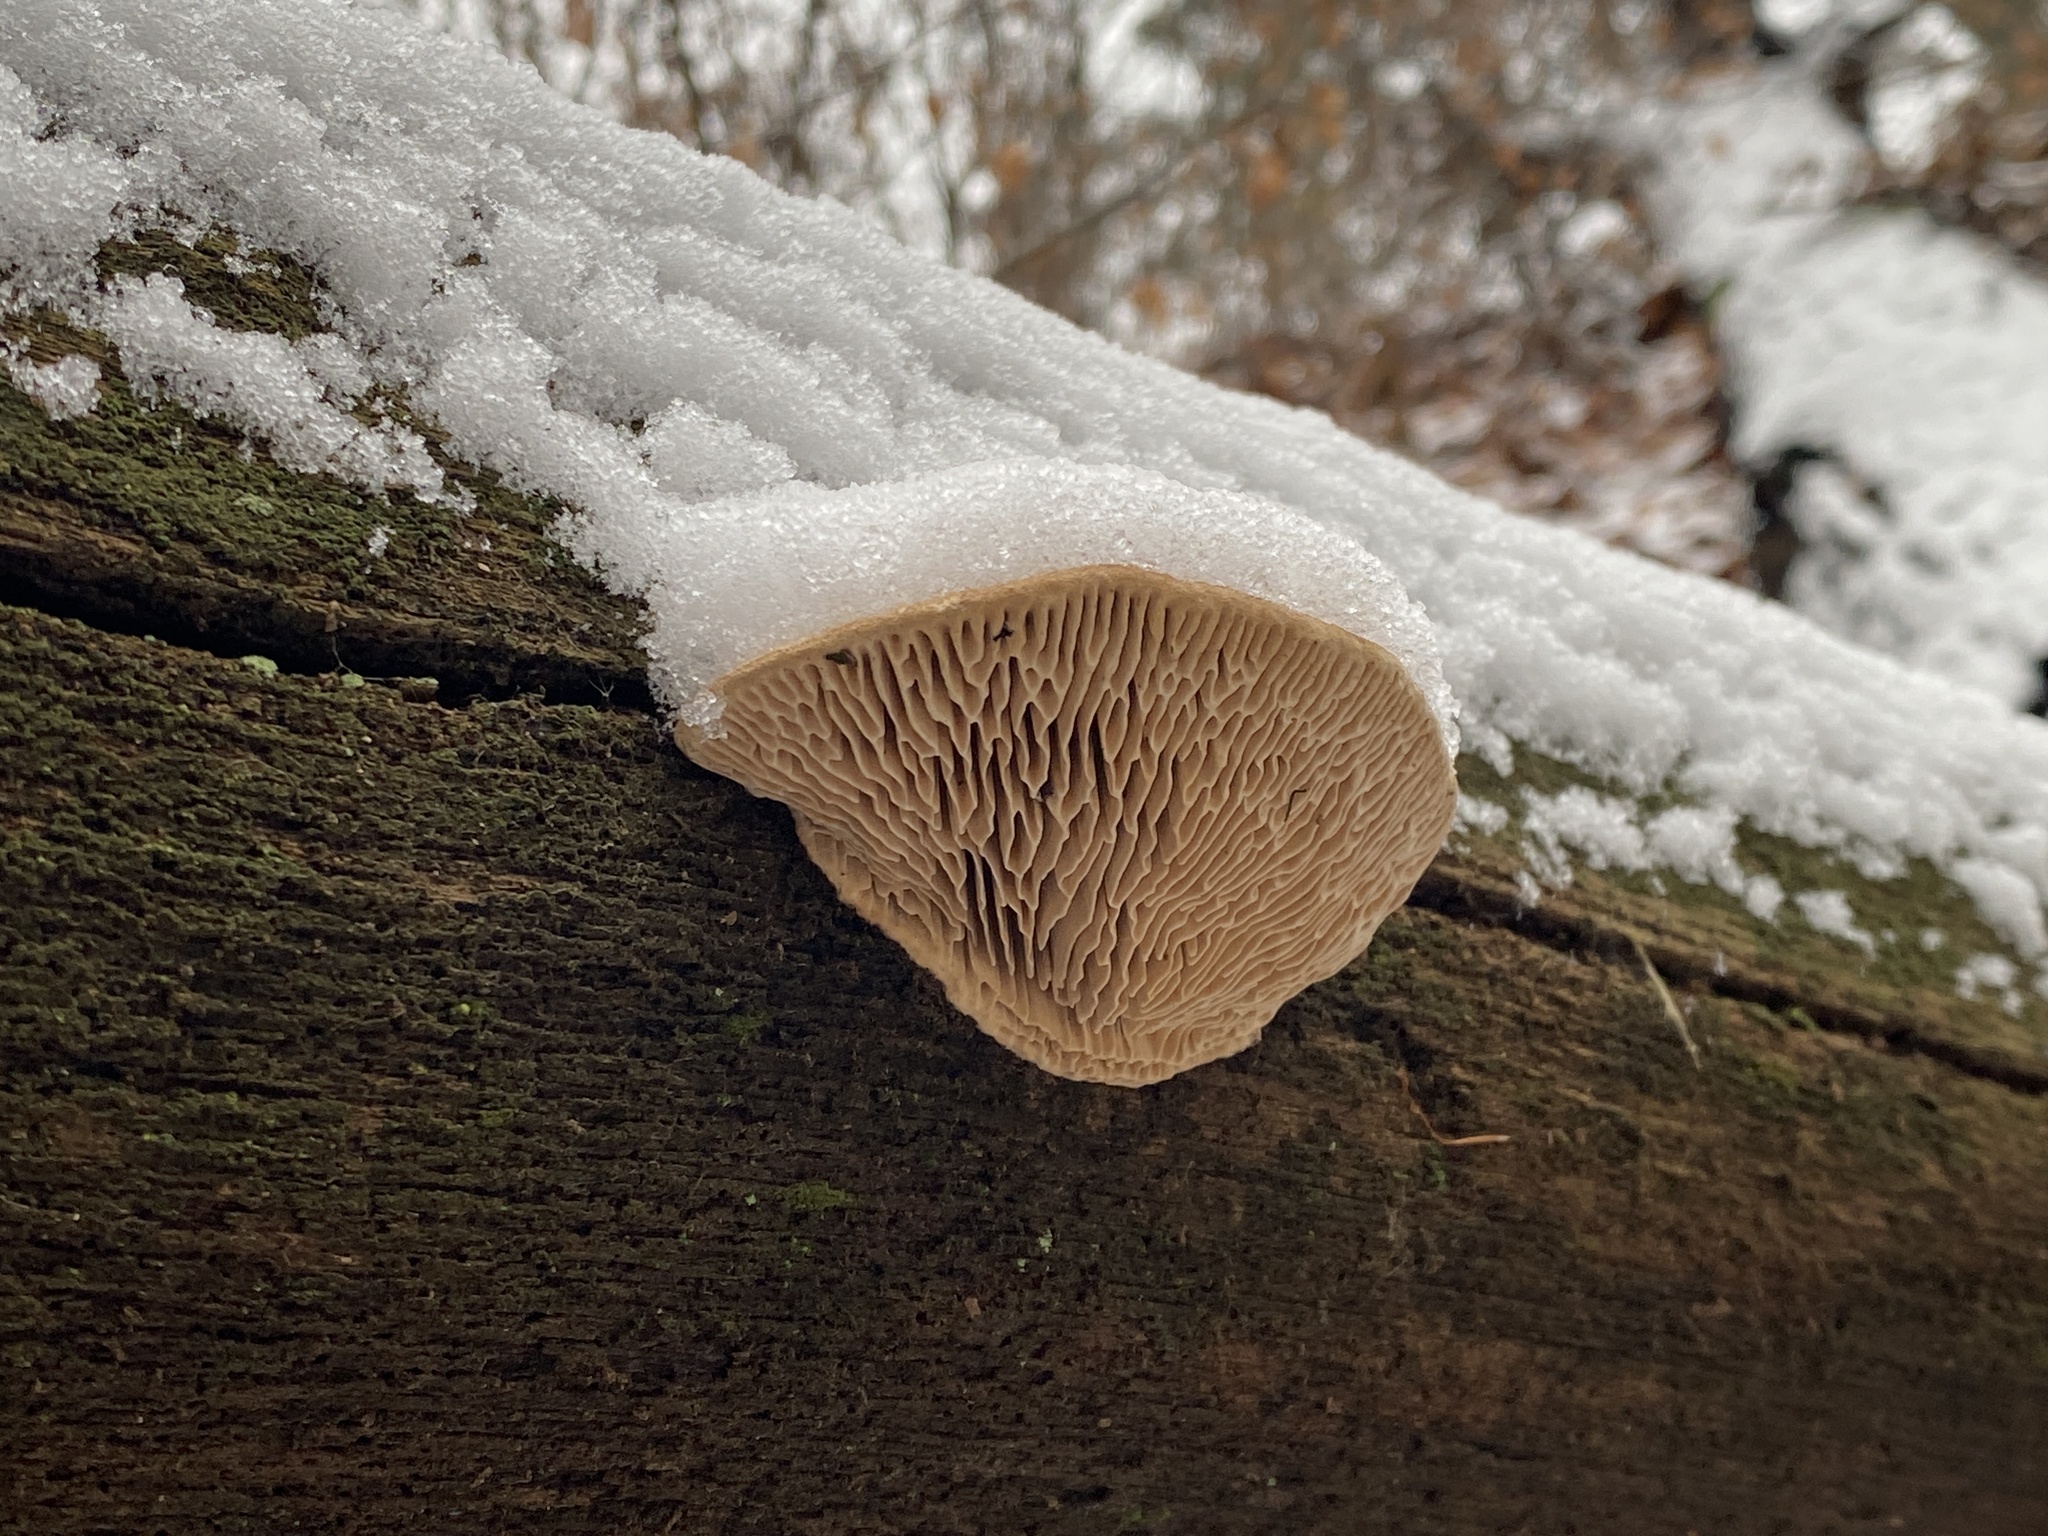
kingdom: Fungi
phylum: Basidiomycota
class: Agaricomycetes
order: Polyporales
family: Fomitopsidaceae
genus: Fomitopsis
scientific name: Fomitopsis
